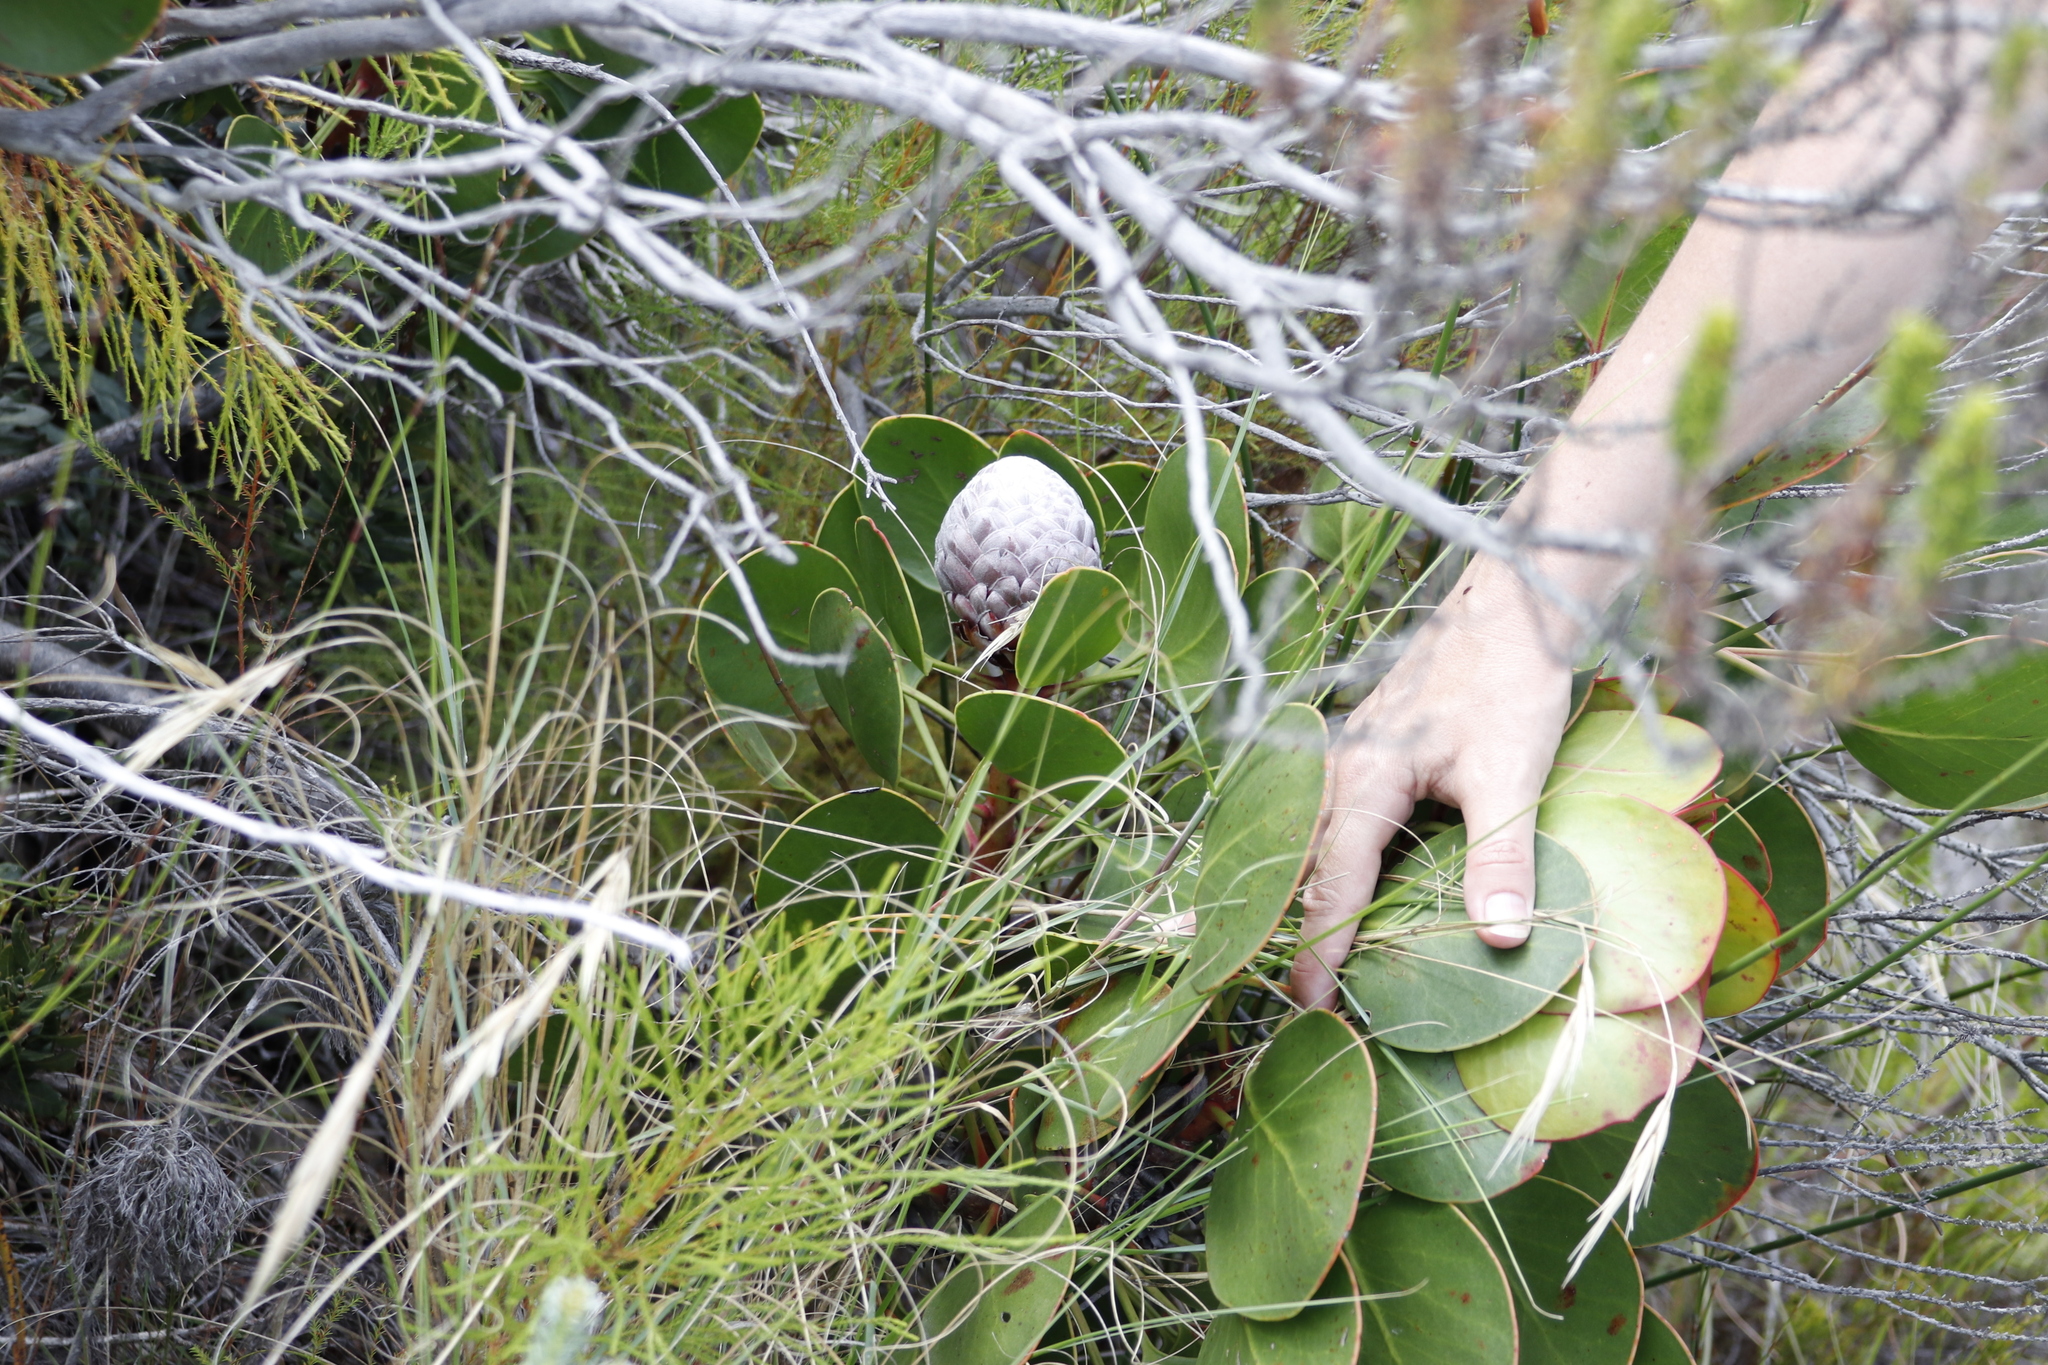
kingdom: Plantae
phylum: Tracheophyta
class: Magnoliopsida
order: Proteales
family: Proteaceae
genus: Protea
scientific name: Protea cynaroides
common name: King protea
